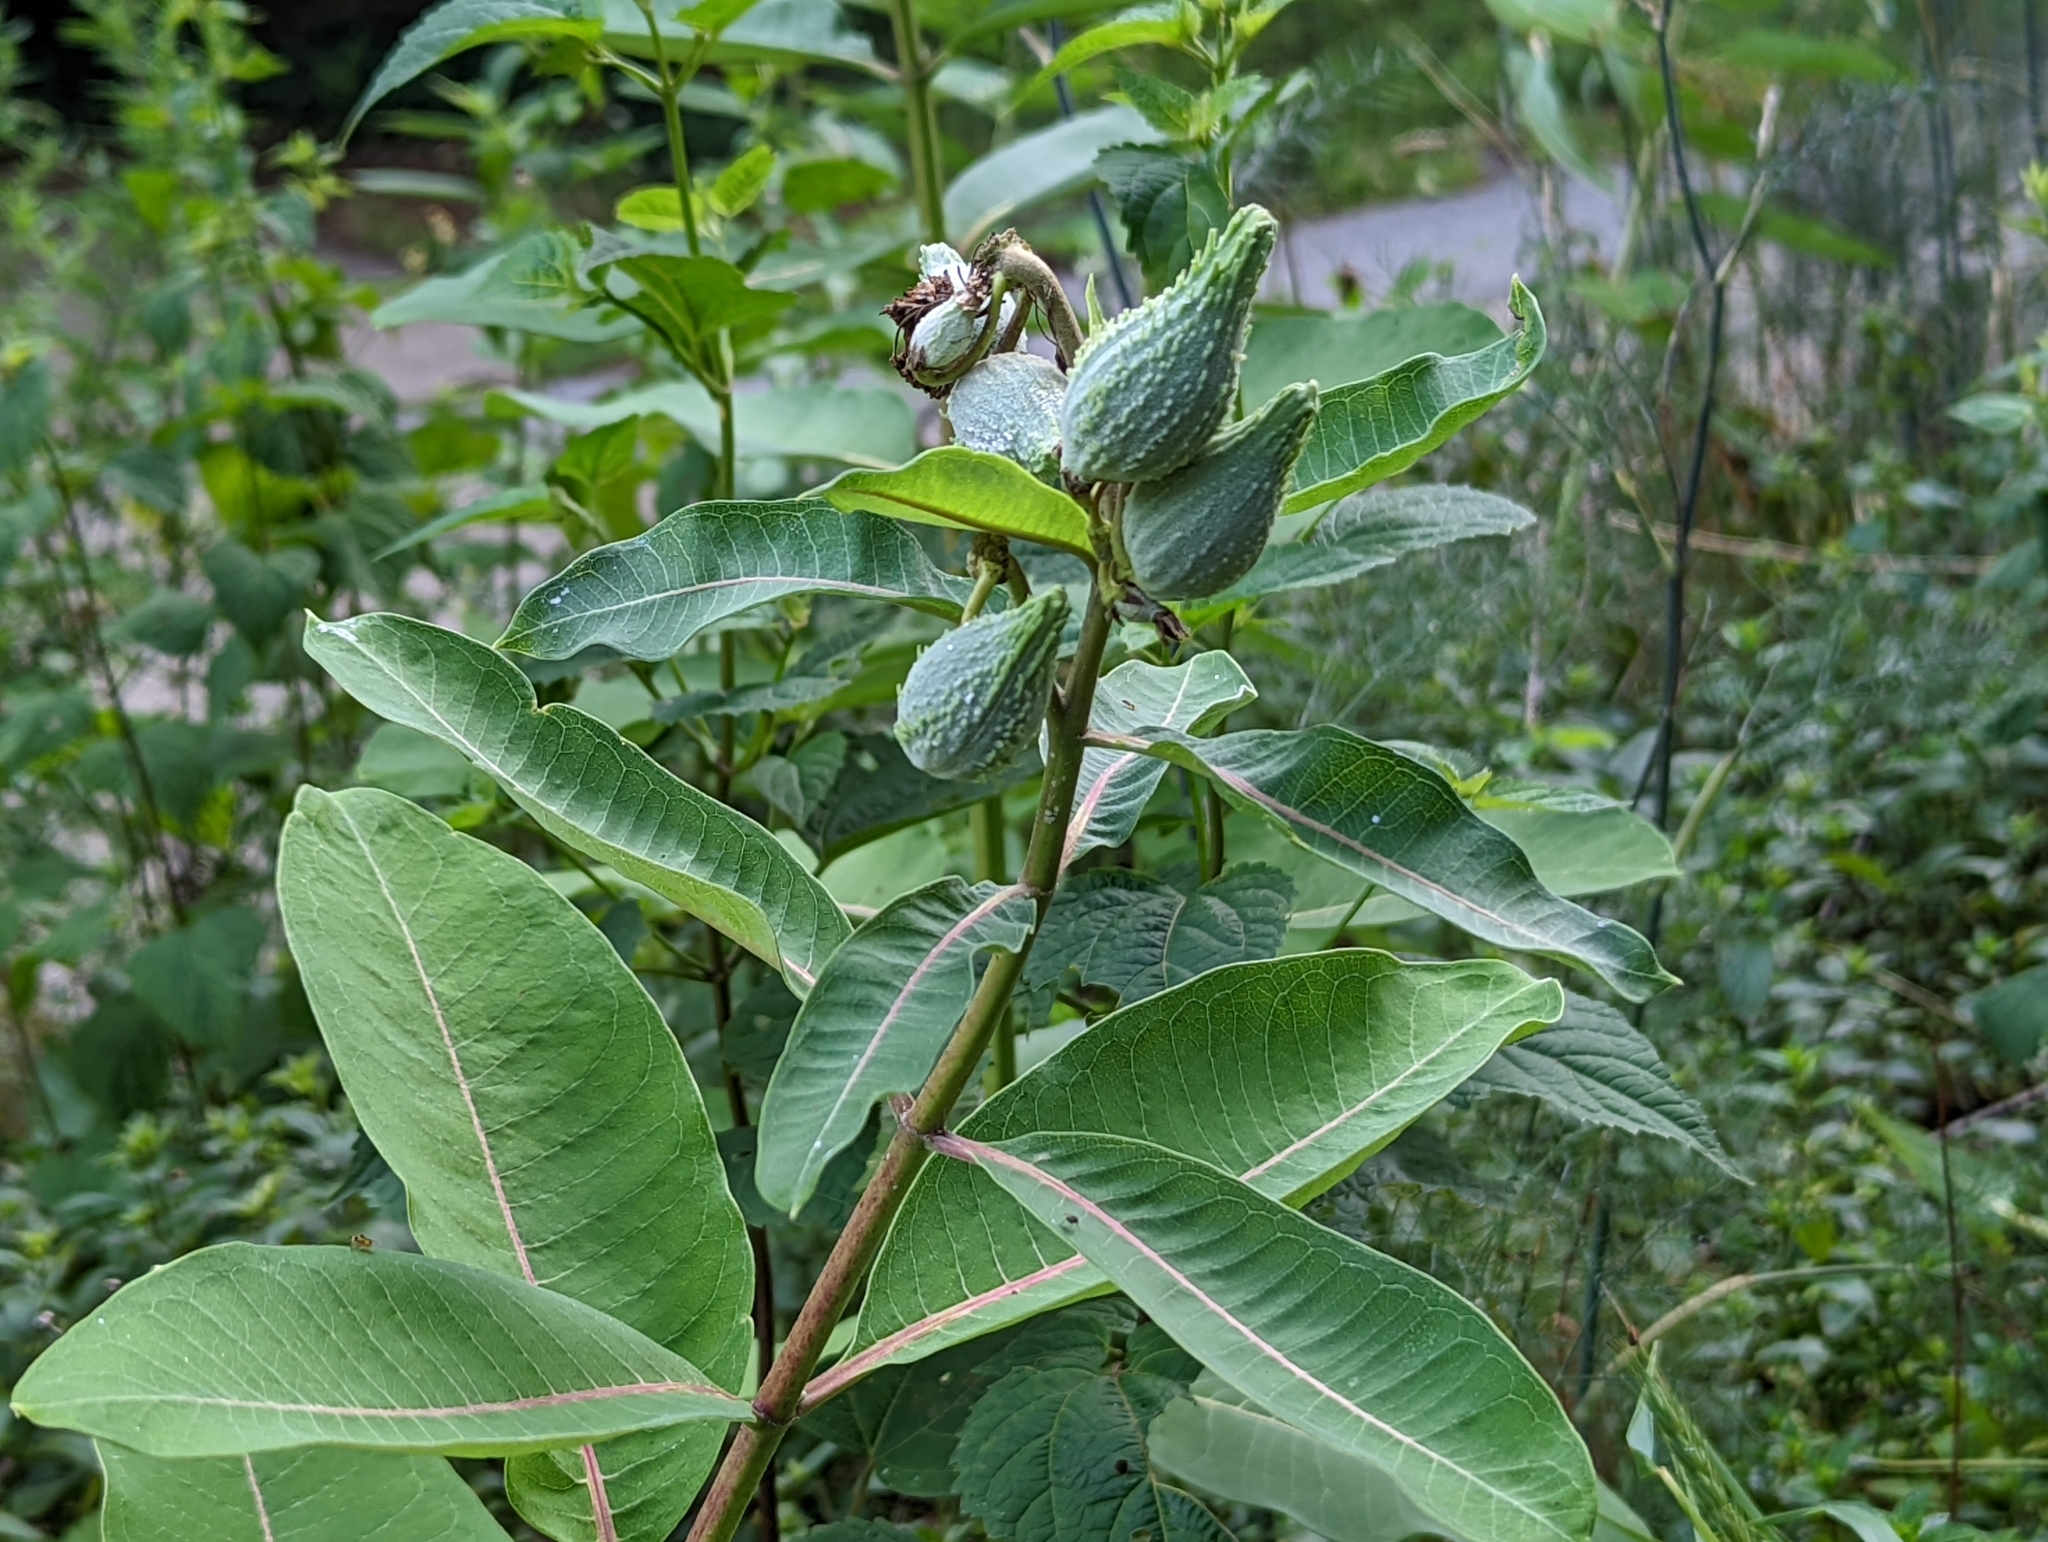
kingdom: Plantae
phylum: Tracheophyta
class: Magnoliopsida
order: Gentianales
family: Apocynaceae
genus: Asclepias
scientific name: Asclepias syriaca
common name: Common milkweed
